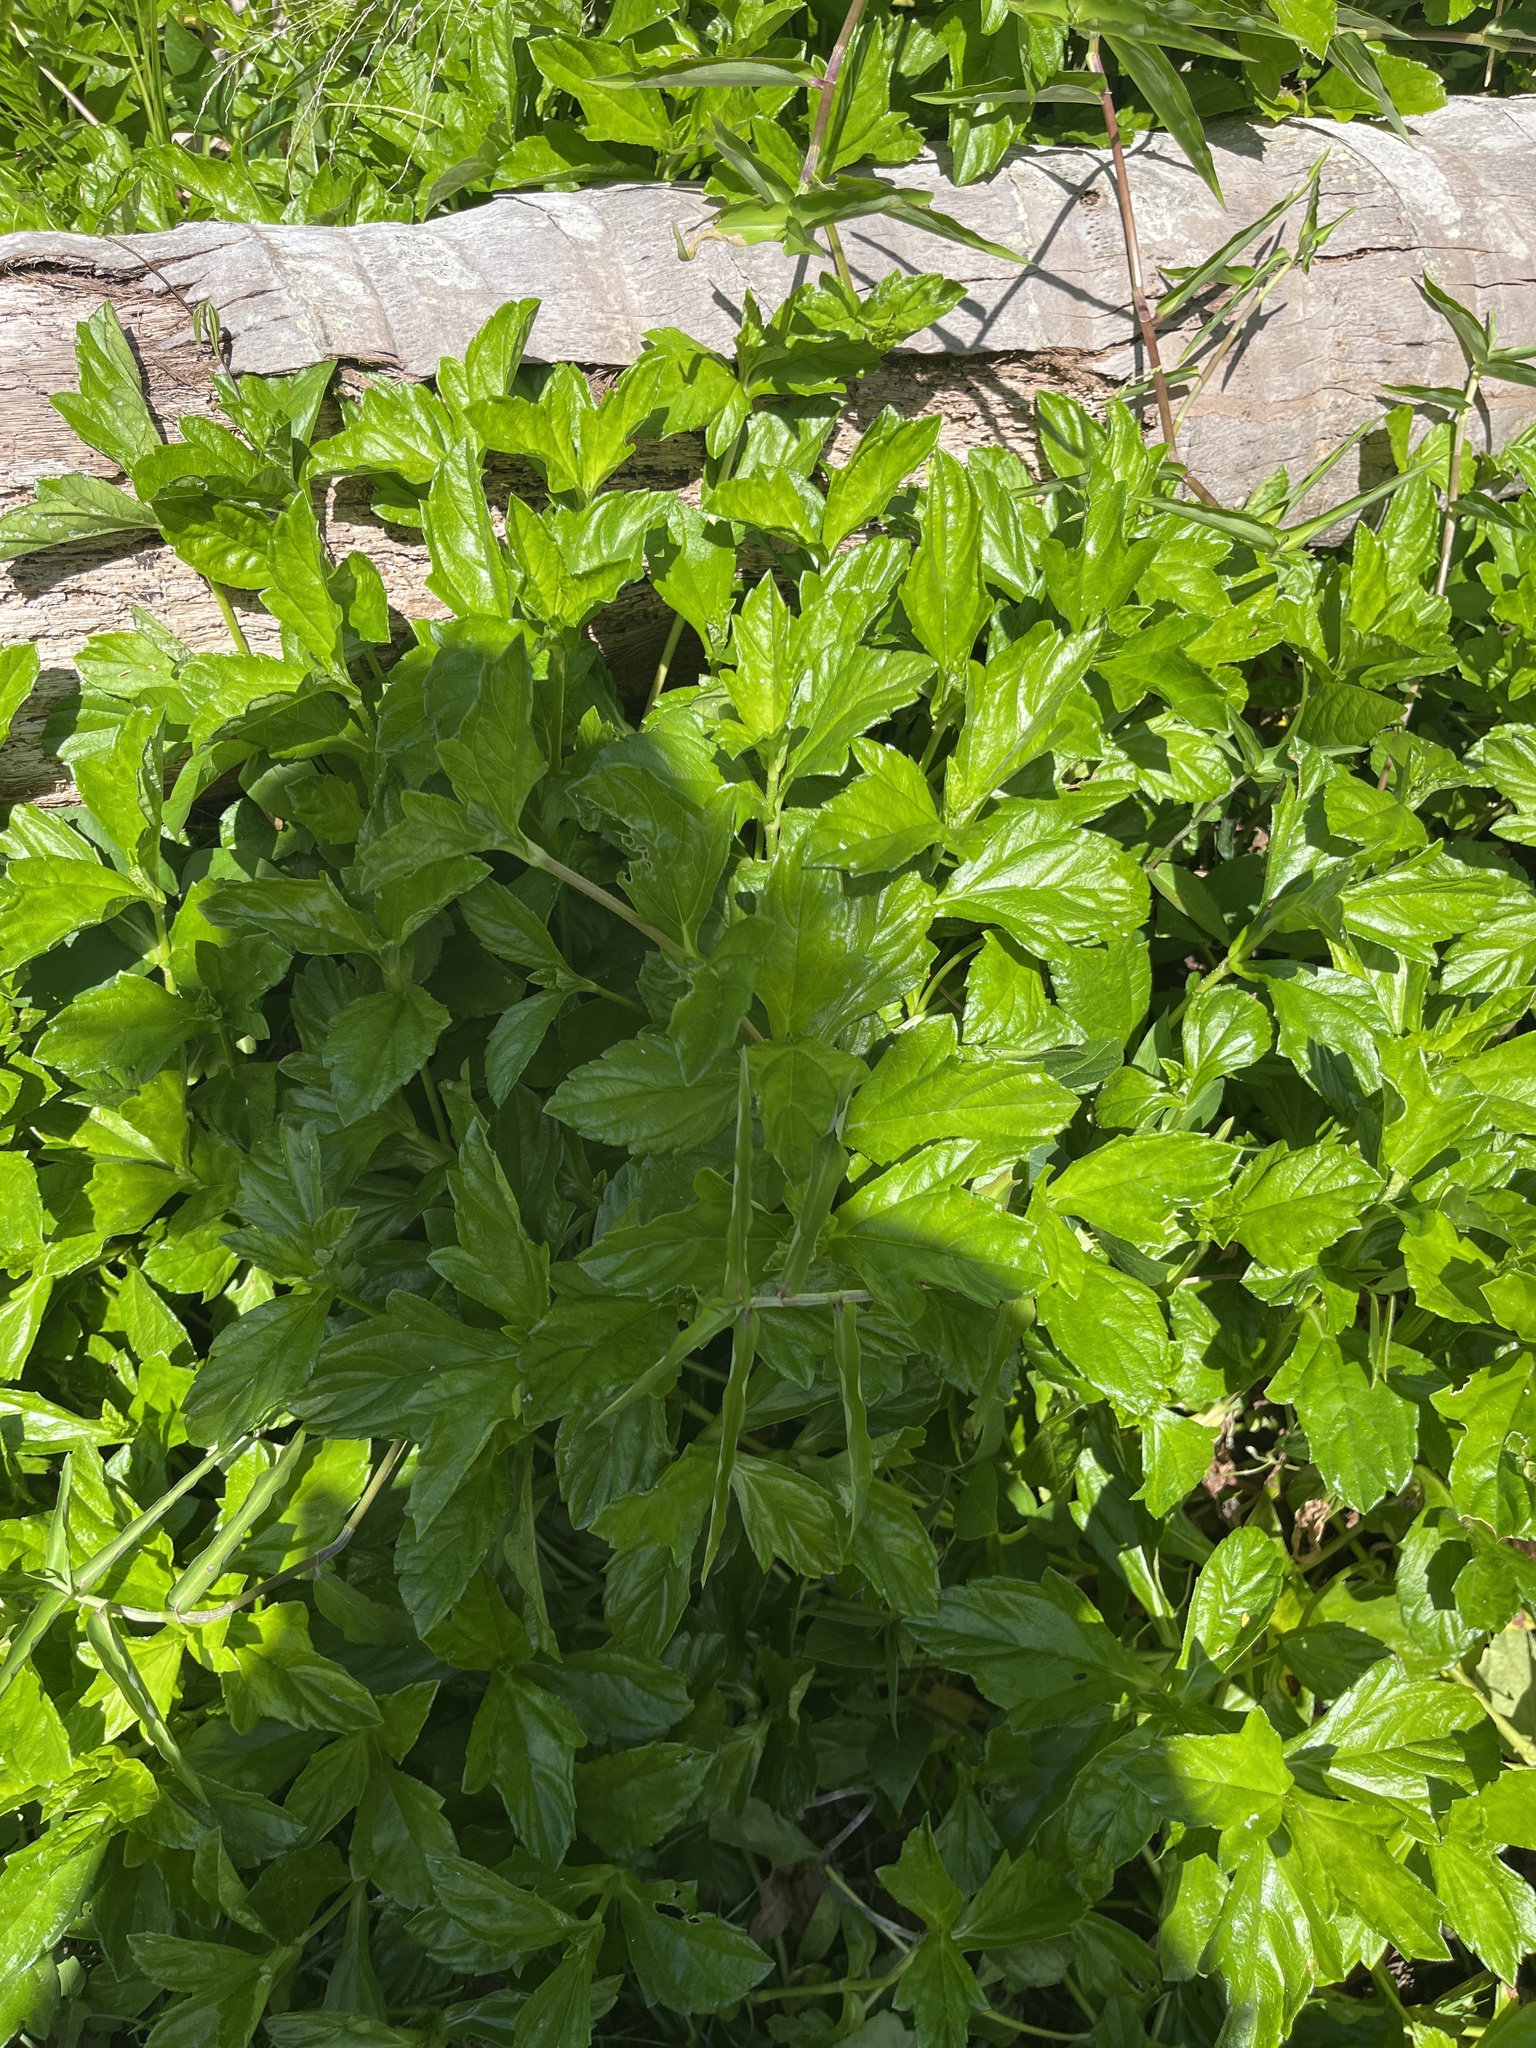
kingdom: Plantae
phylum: Tracheophyta
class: Magnoliopsida
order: Asterales
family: Asteraceae
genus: Sphagneticola
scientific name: Sphagneticola trilobata
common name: Bay biscayne creeping-oxeye
